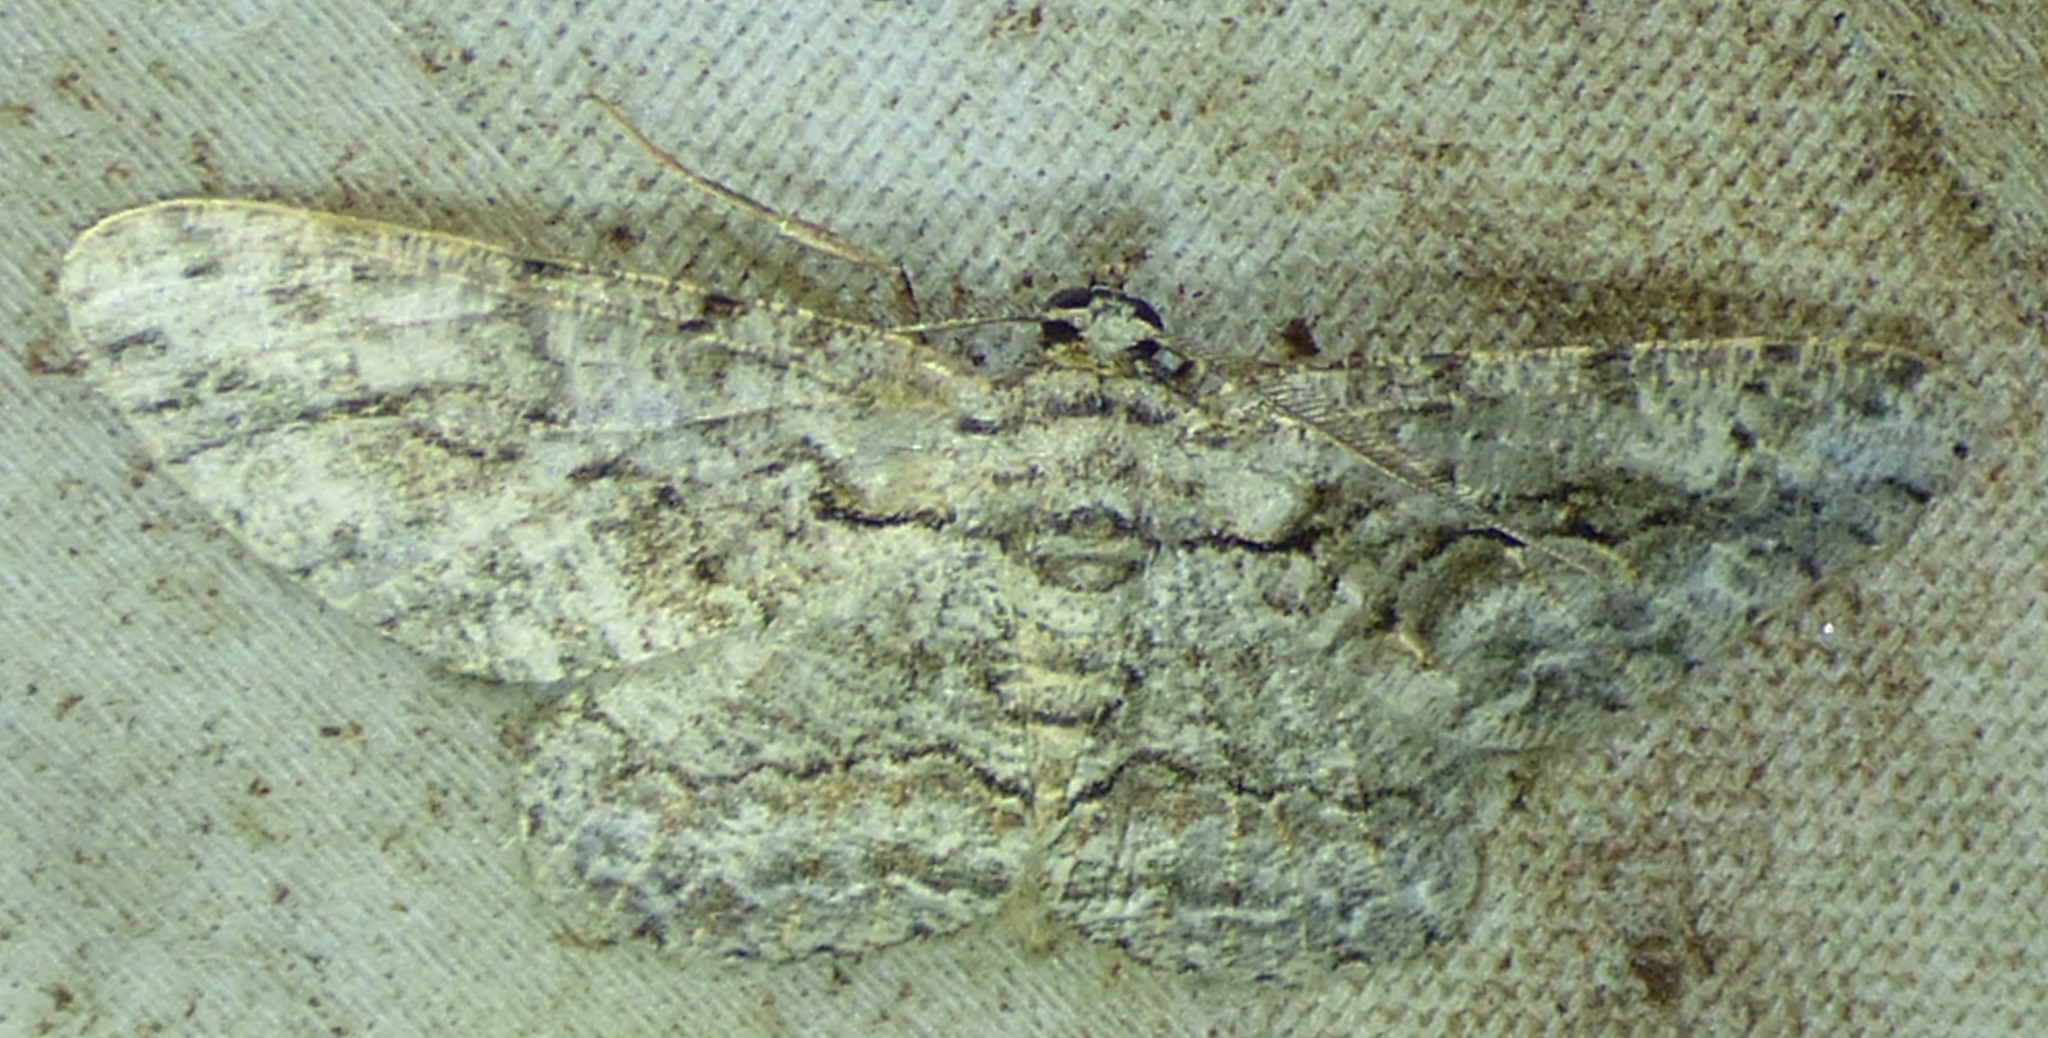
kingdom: Animalia
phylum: Arthropoda
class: Insecta
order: Lepidoptera
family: Geometridae
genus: Anavitrinella
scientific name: Anavitrinella pampinaria
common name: Common gray
